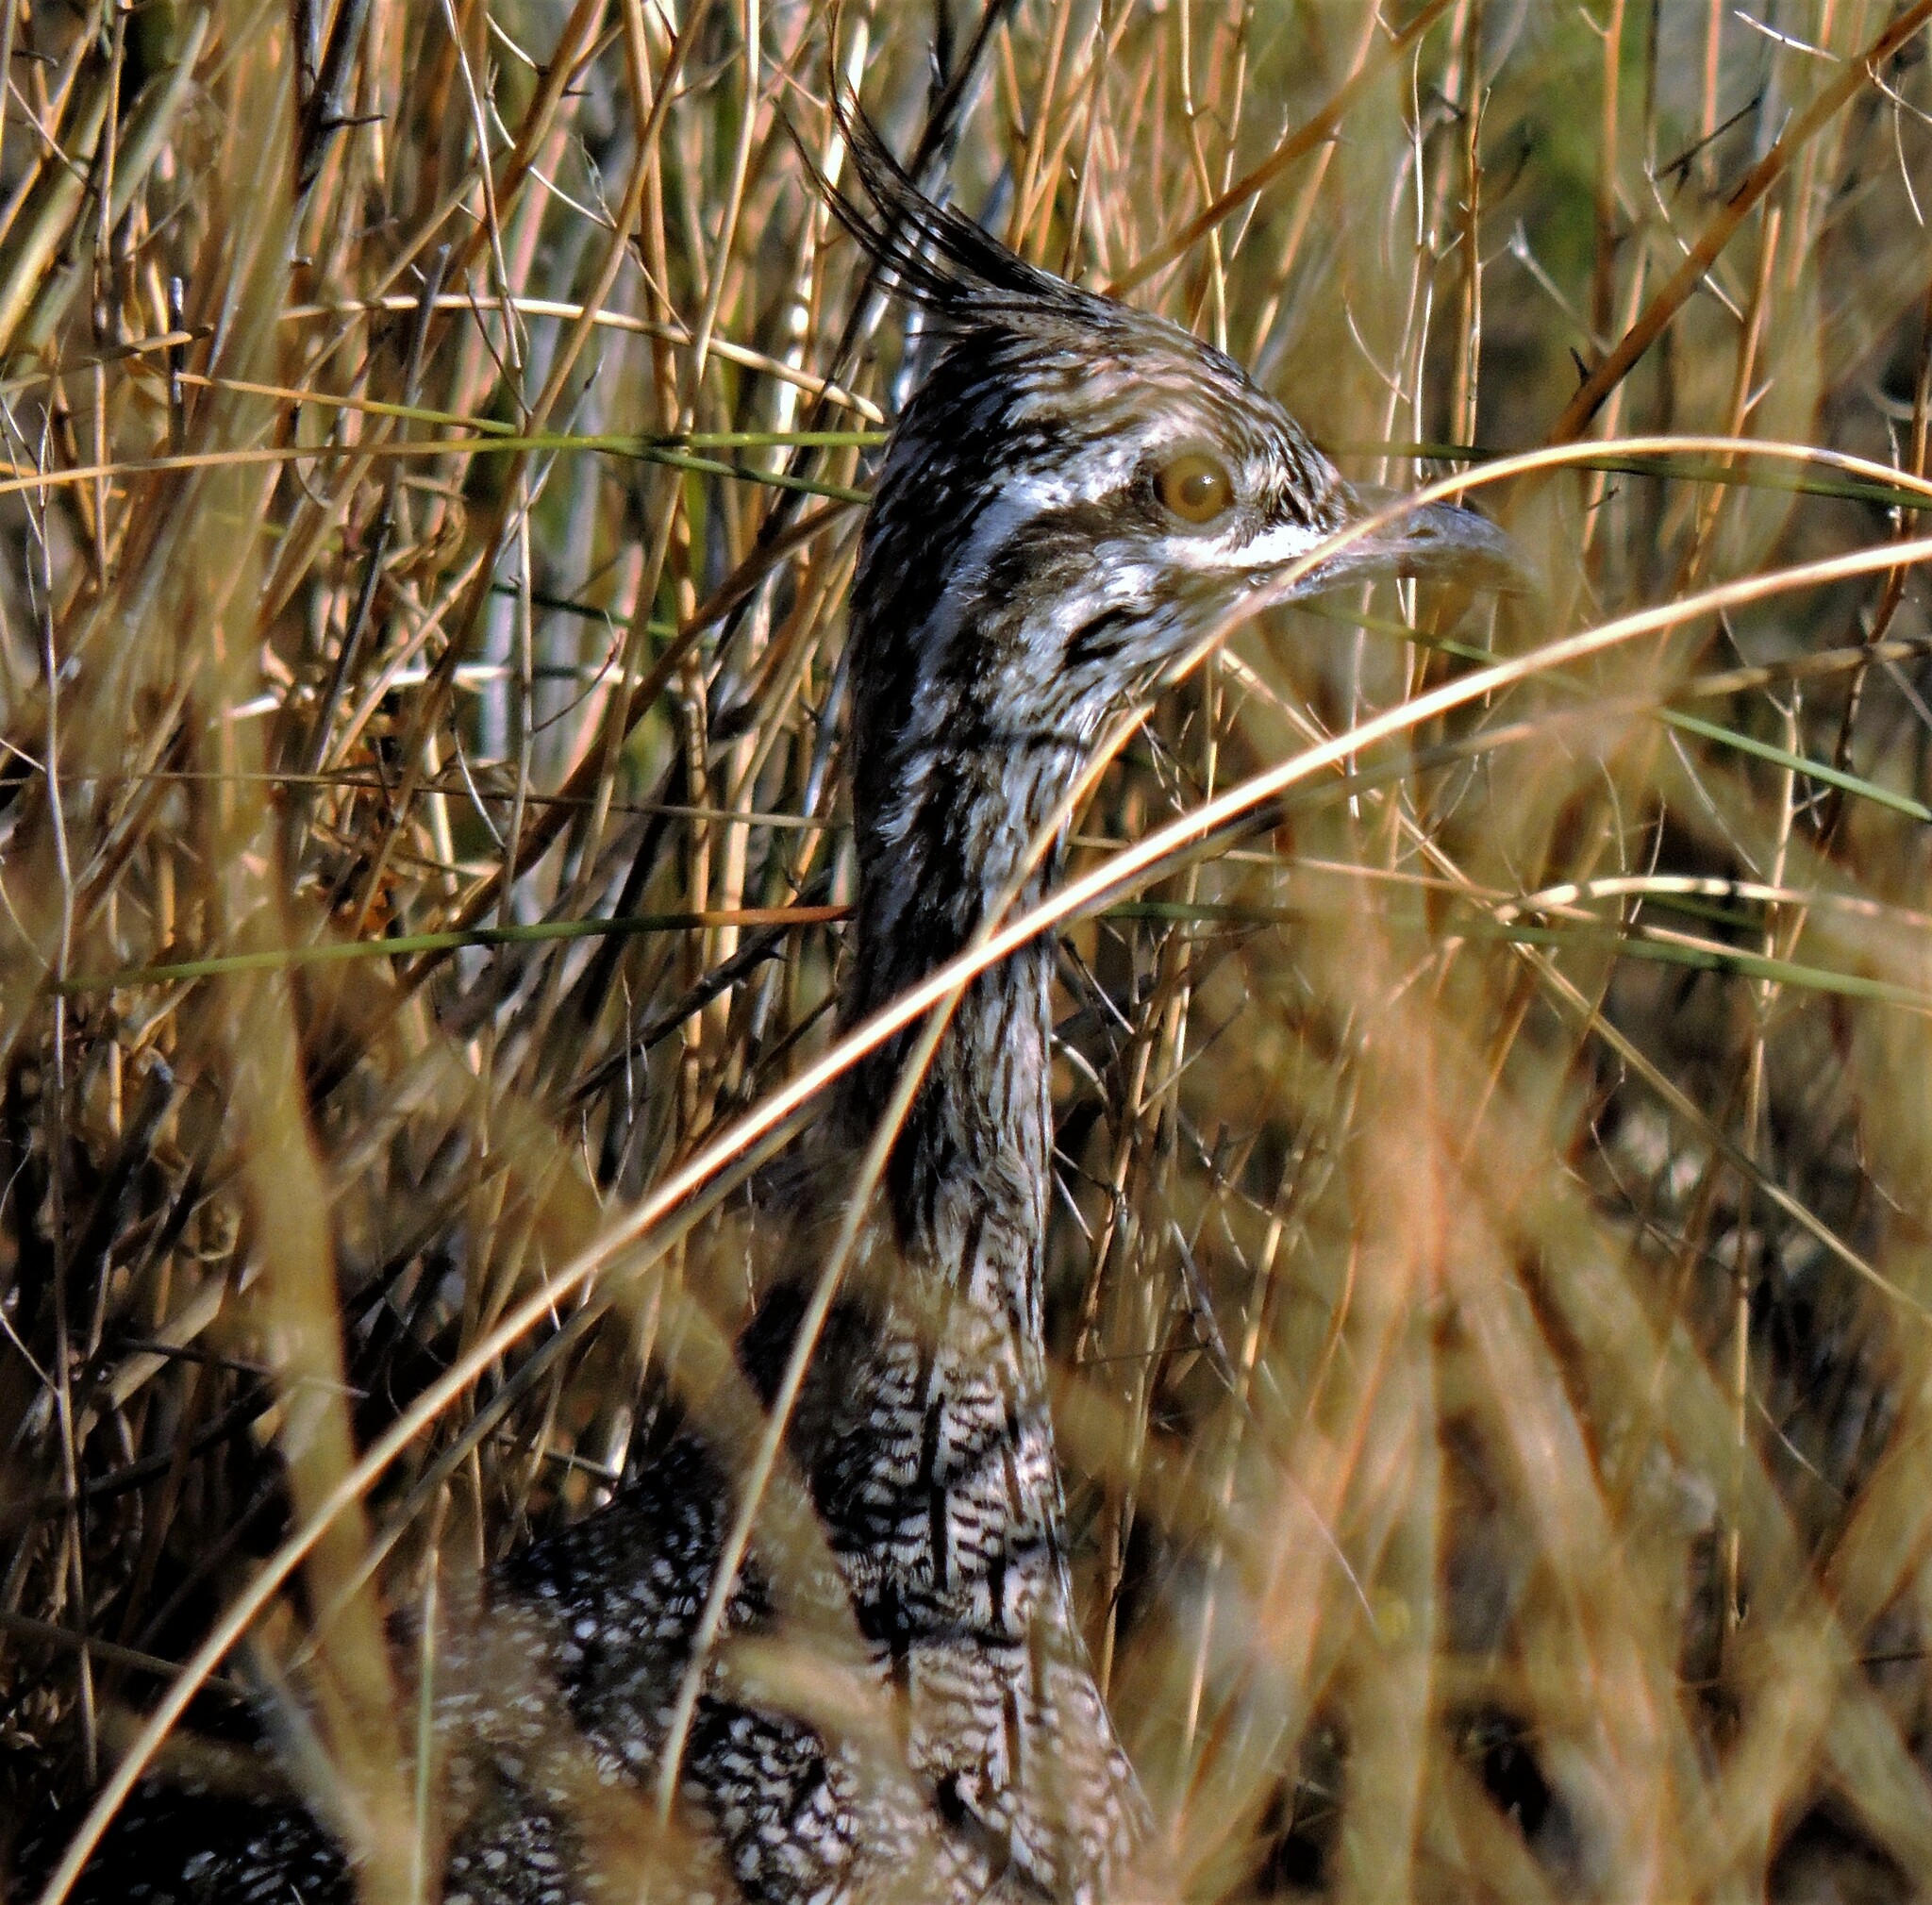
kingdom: Animalia
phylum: Chordata
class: Aves
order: Tinamiformes
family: Tinamidae
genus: Eudromia
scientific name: Eudromia elegans
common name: Elegant crested tinamou
